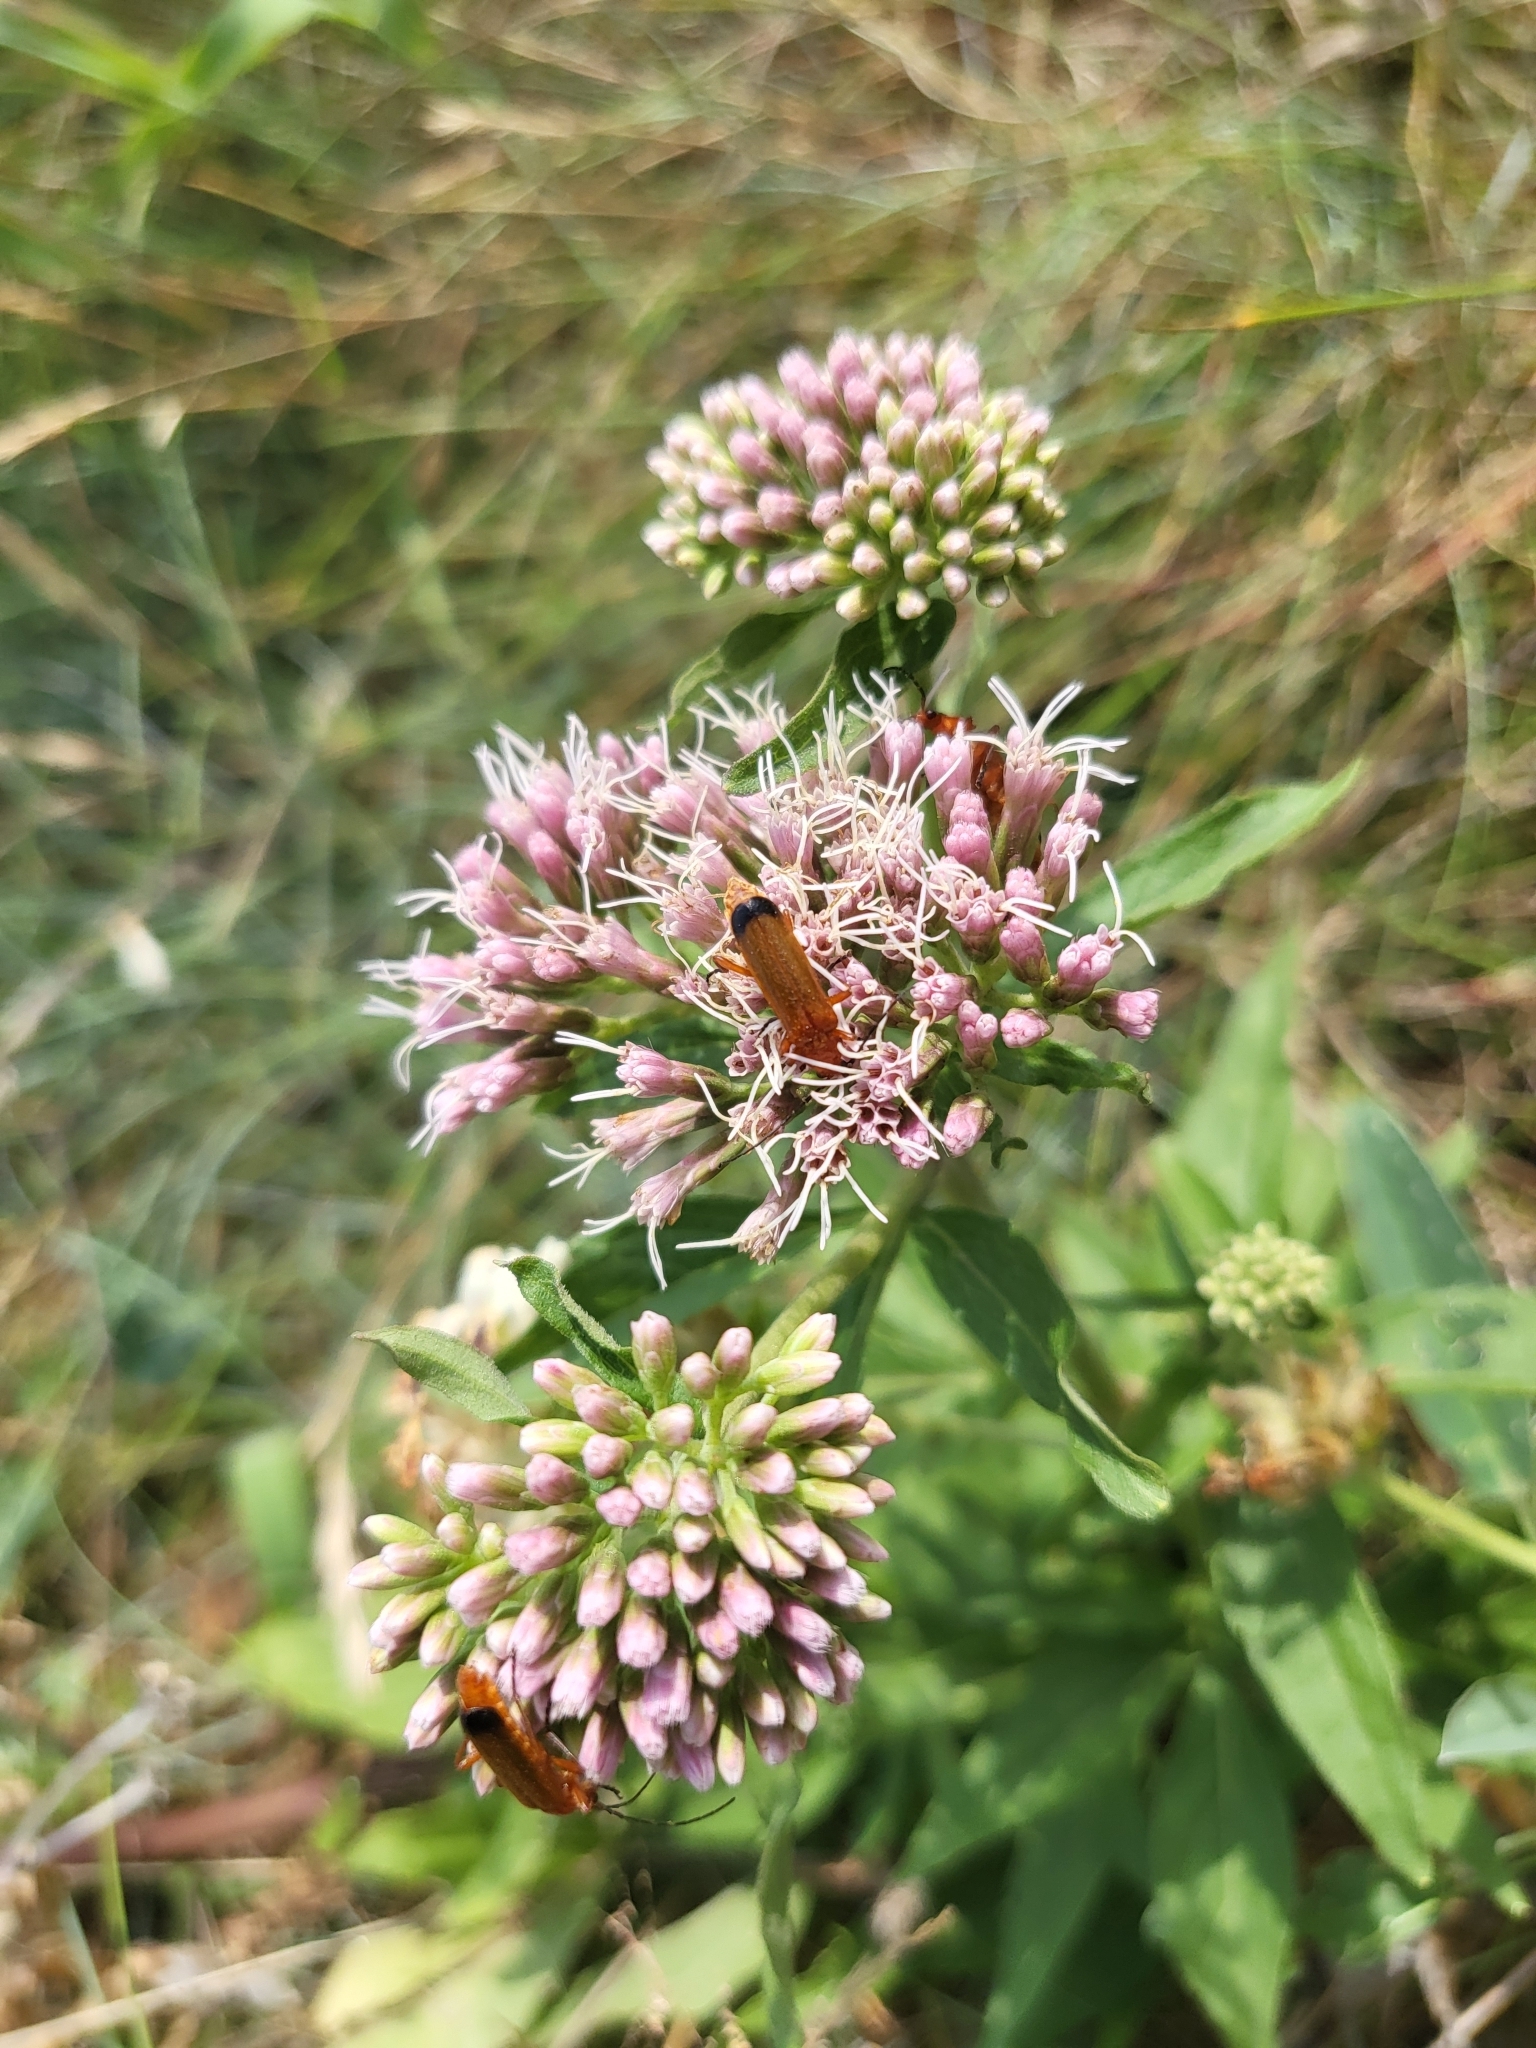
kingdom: Plantae
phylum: Tracheophyta
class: Magnoliopsida
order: Asterales
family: Asteraceae
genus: Eupatorium
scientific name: Eupatorium cannabinum
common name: Hemp-agrimony
